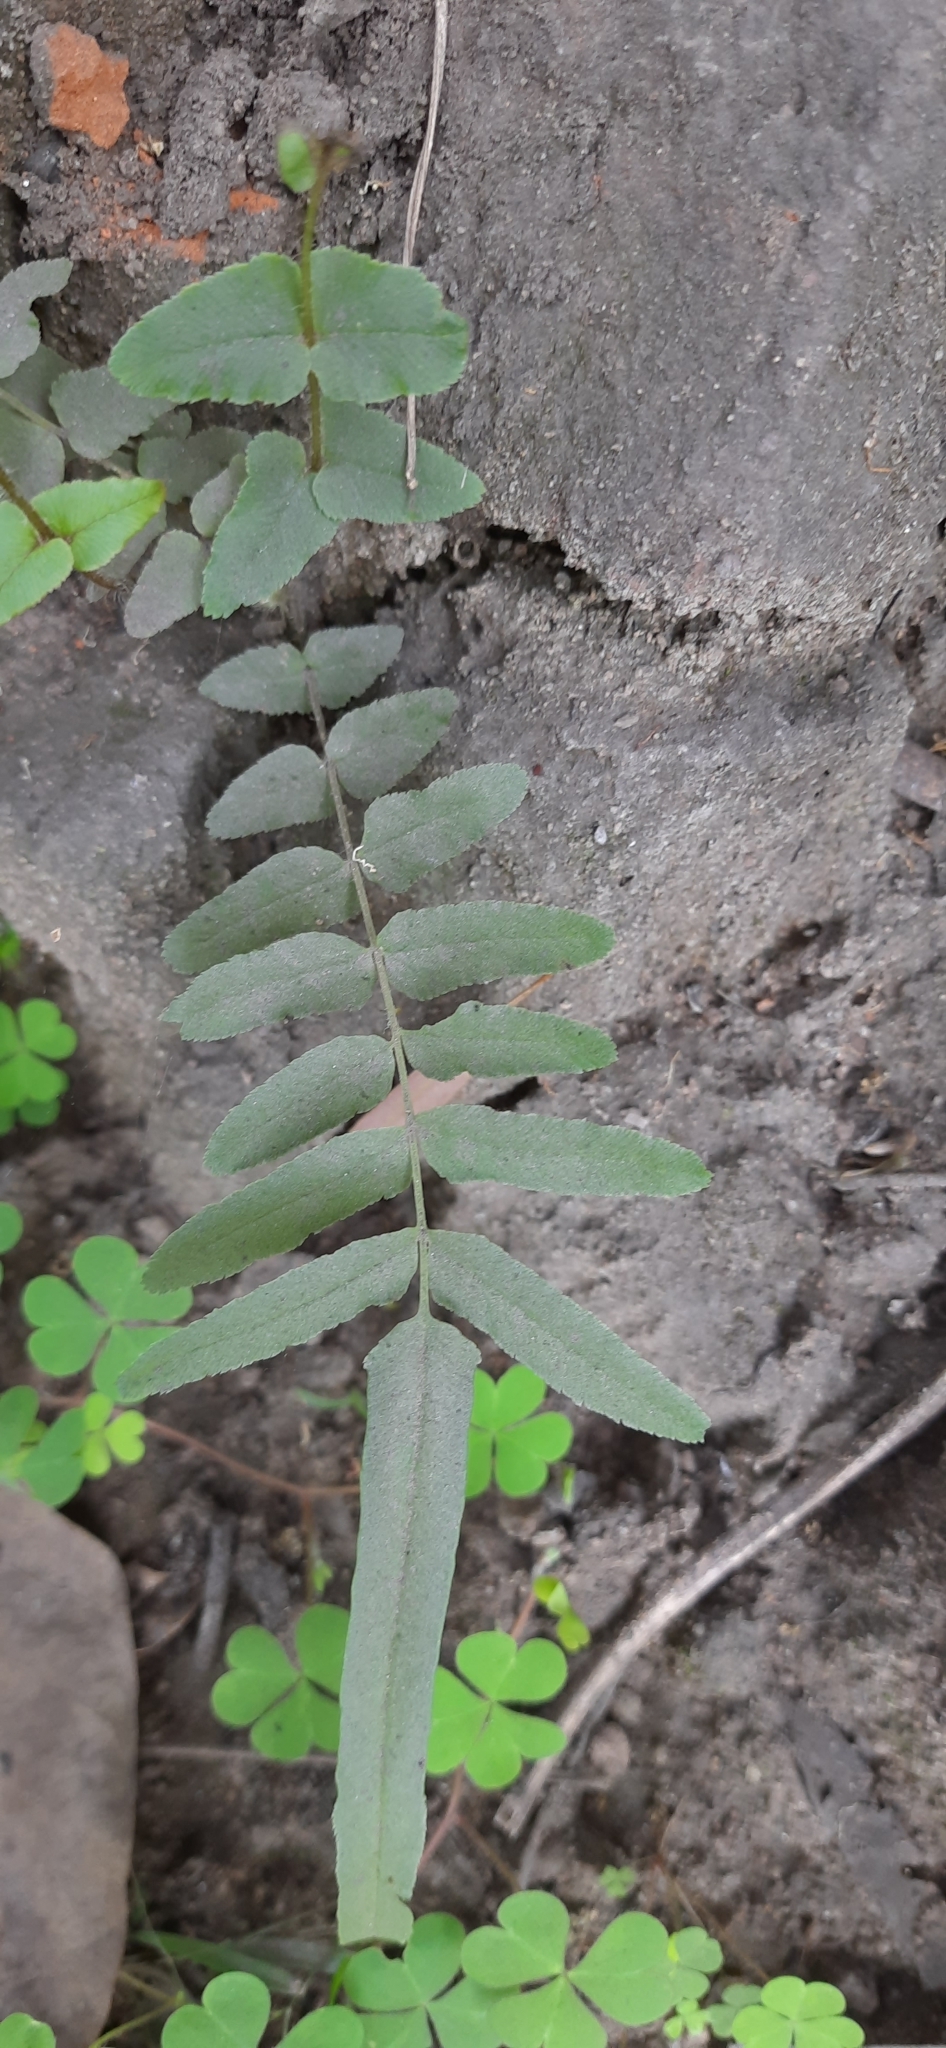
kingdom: Plantae
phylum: Tracheophyta
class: Polypodiopsida
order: Polypodiales
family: Pteridaceae
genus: Pteris
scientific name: Pteris vittata
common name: Ladder brake
